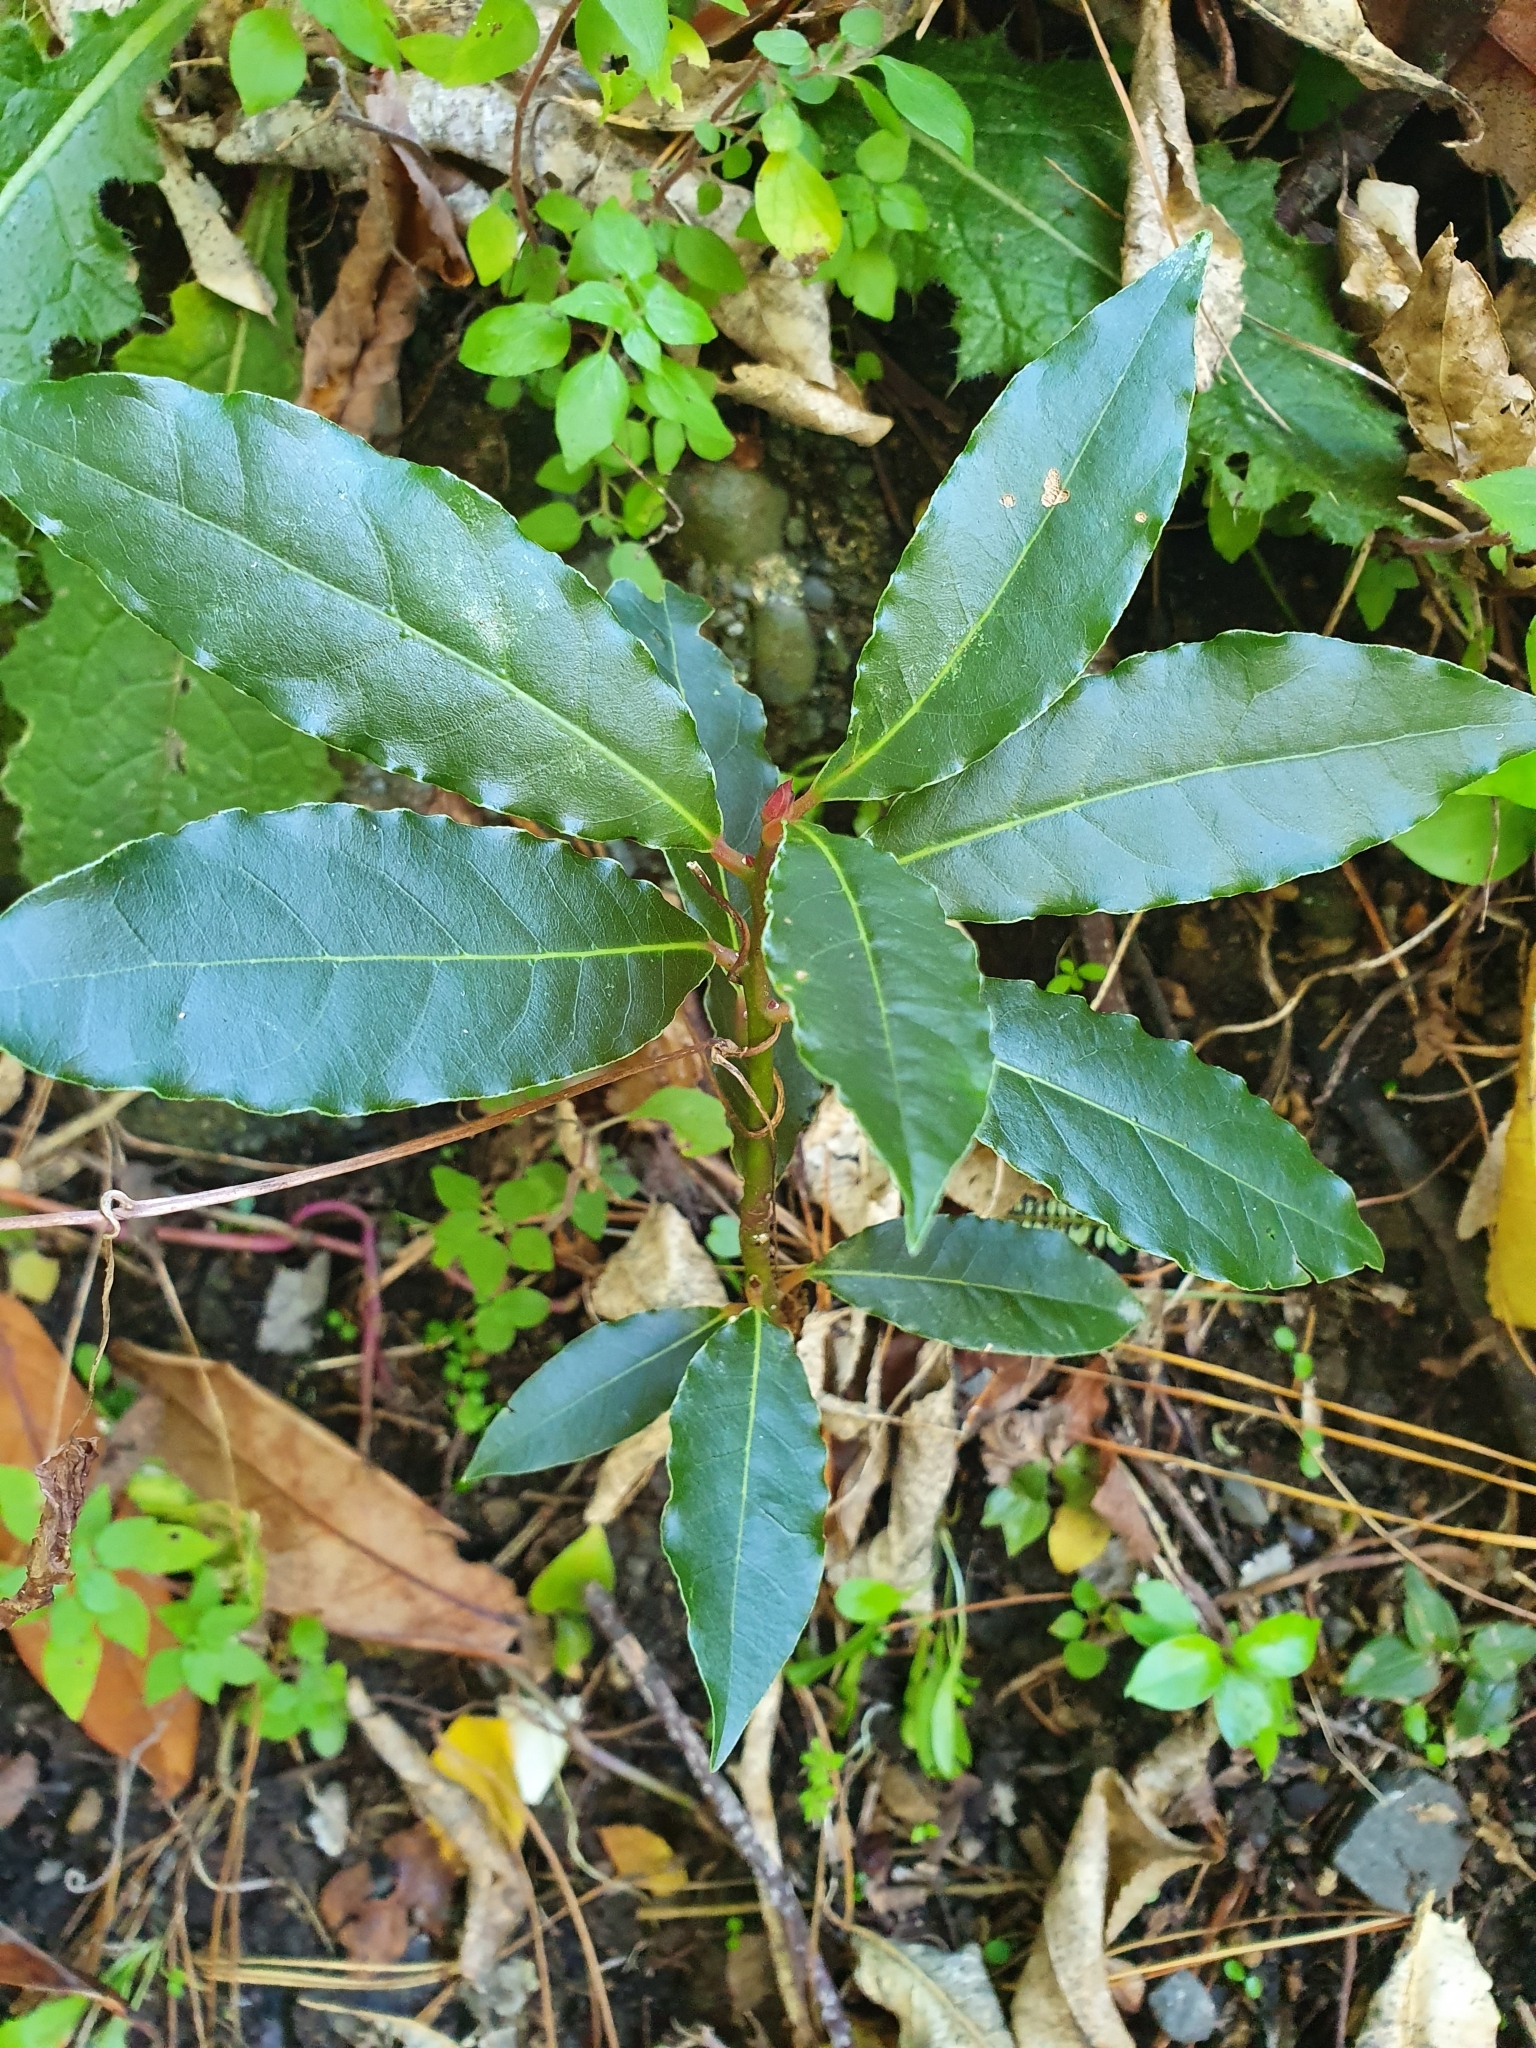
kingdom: Plantae
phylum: Tracheophyta
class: Magnoliopsida
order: Laurales
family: Lauraceae
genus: Laurus
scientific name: Laurus nobilis
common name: Bay
